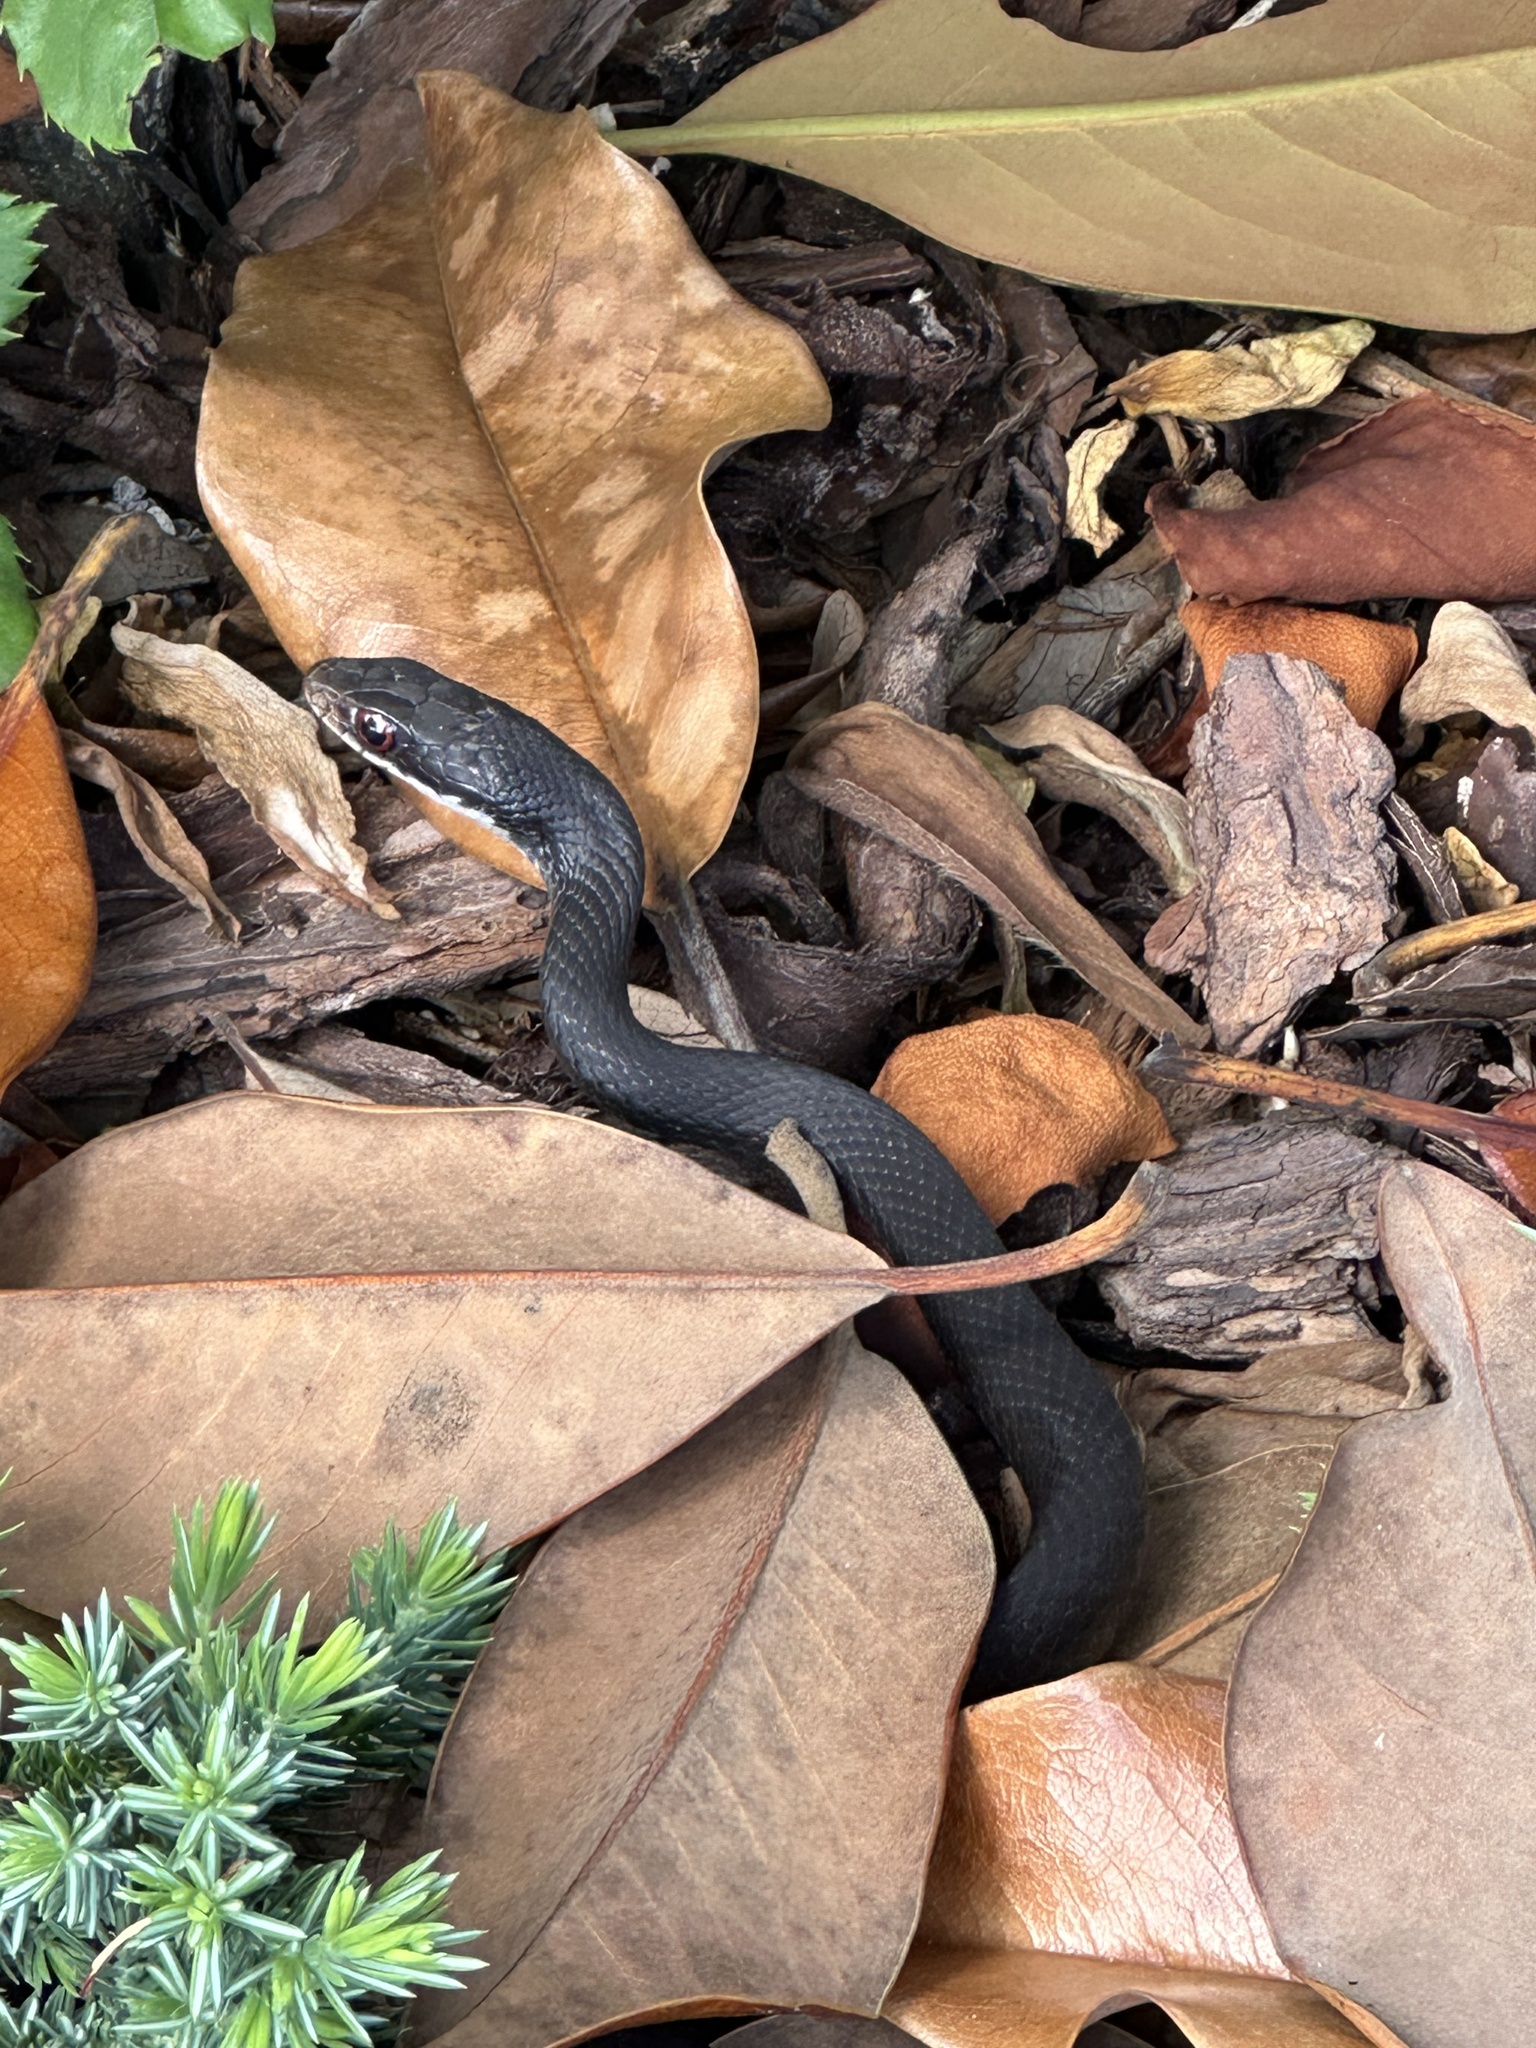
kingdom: Animalia
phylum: Chordata
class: Squamata
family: Colubridae
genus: Coluber
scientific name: Coluber constrictor
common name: Eastern racer
